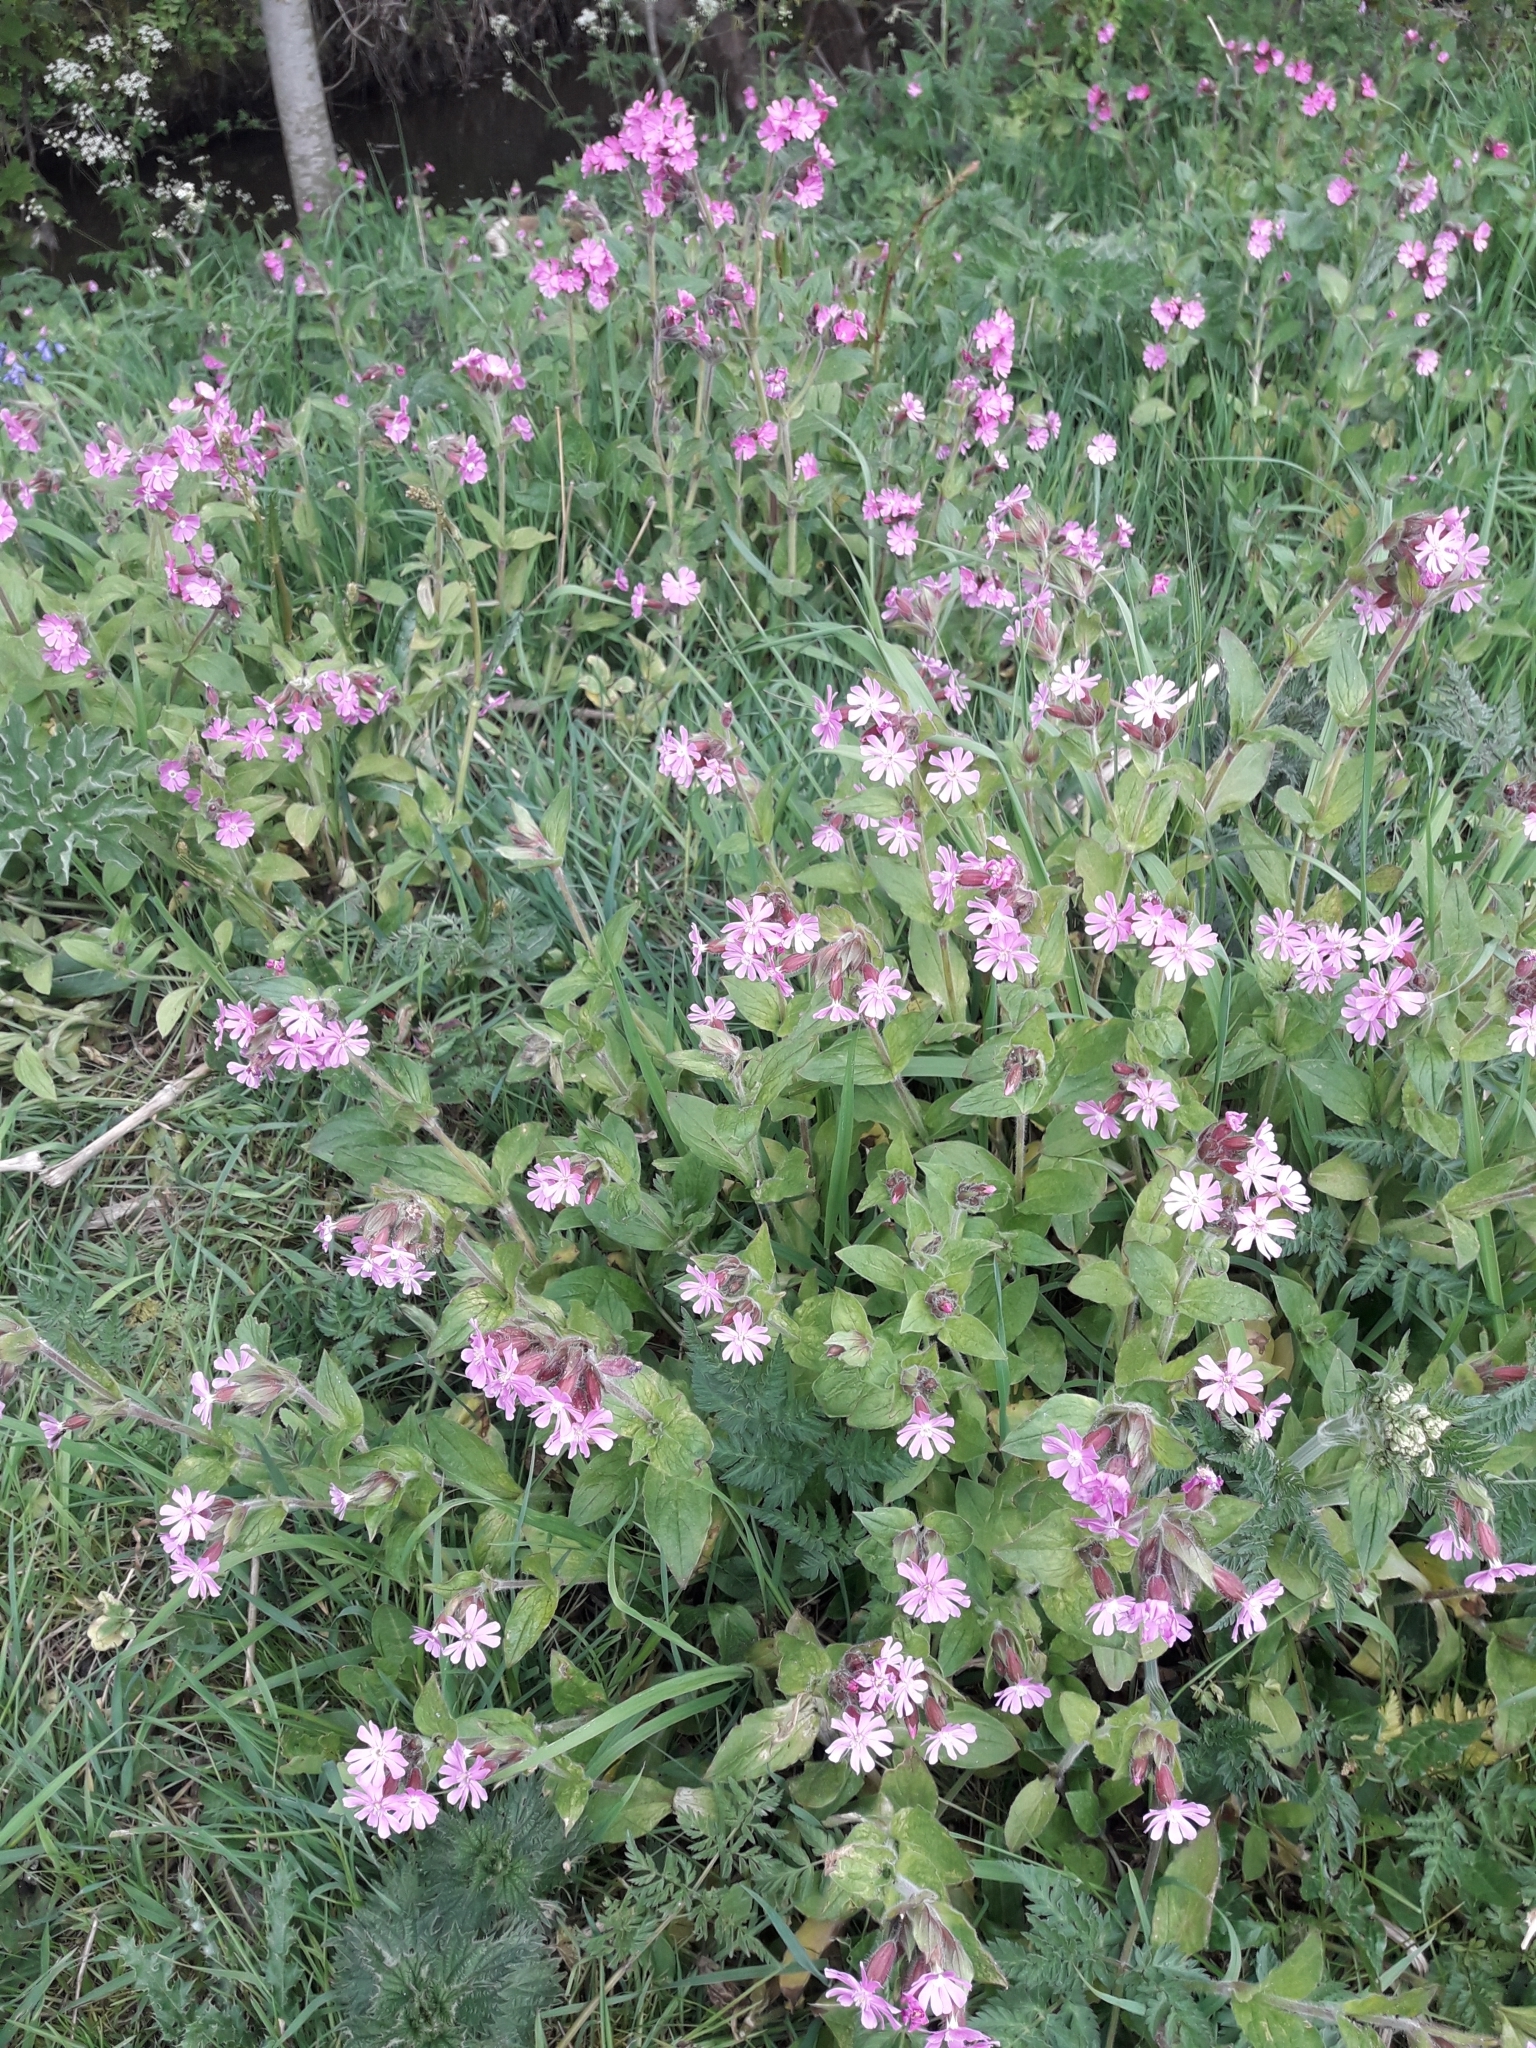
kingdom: Plantae
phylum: Tracheophyta
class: Magnoliopsida
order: Caryophyllales
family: Caryophyllaceae
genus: Silene
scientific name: Silene dioica
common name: Red campion
